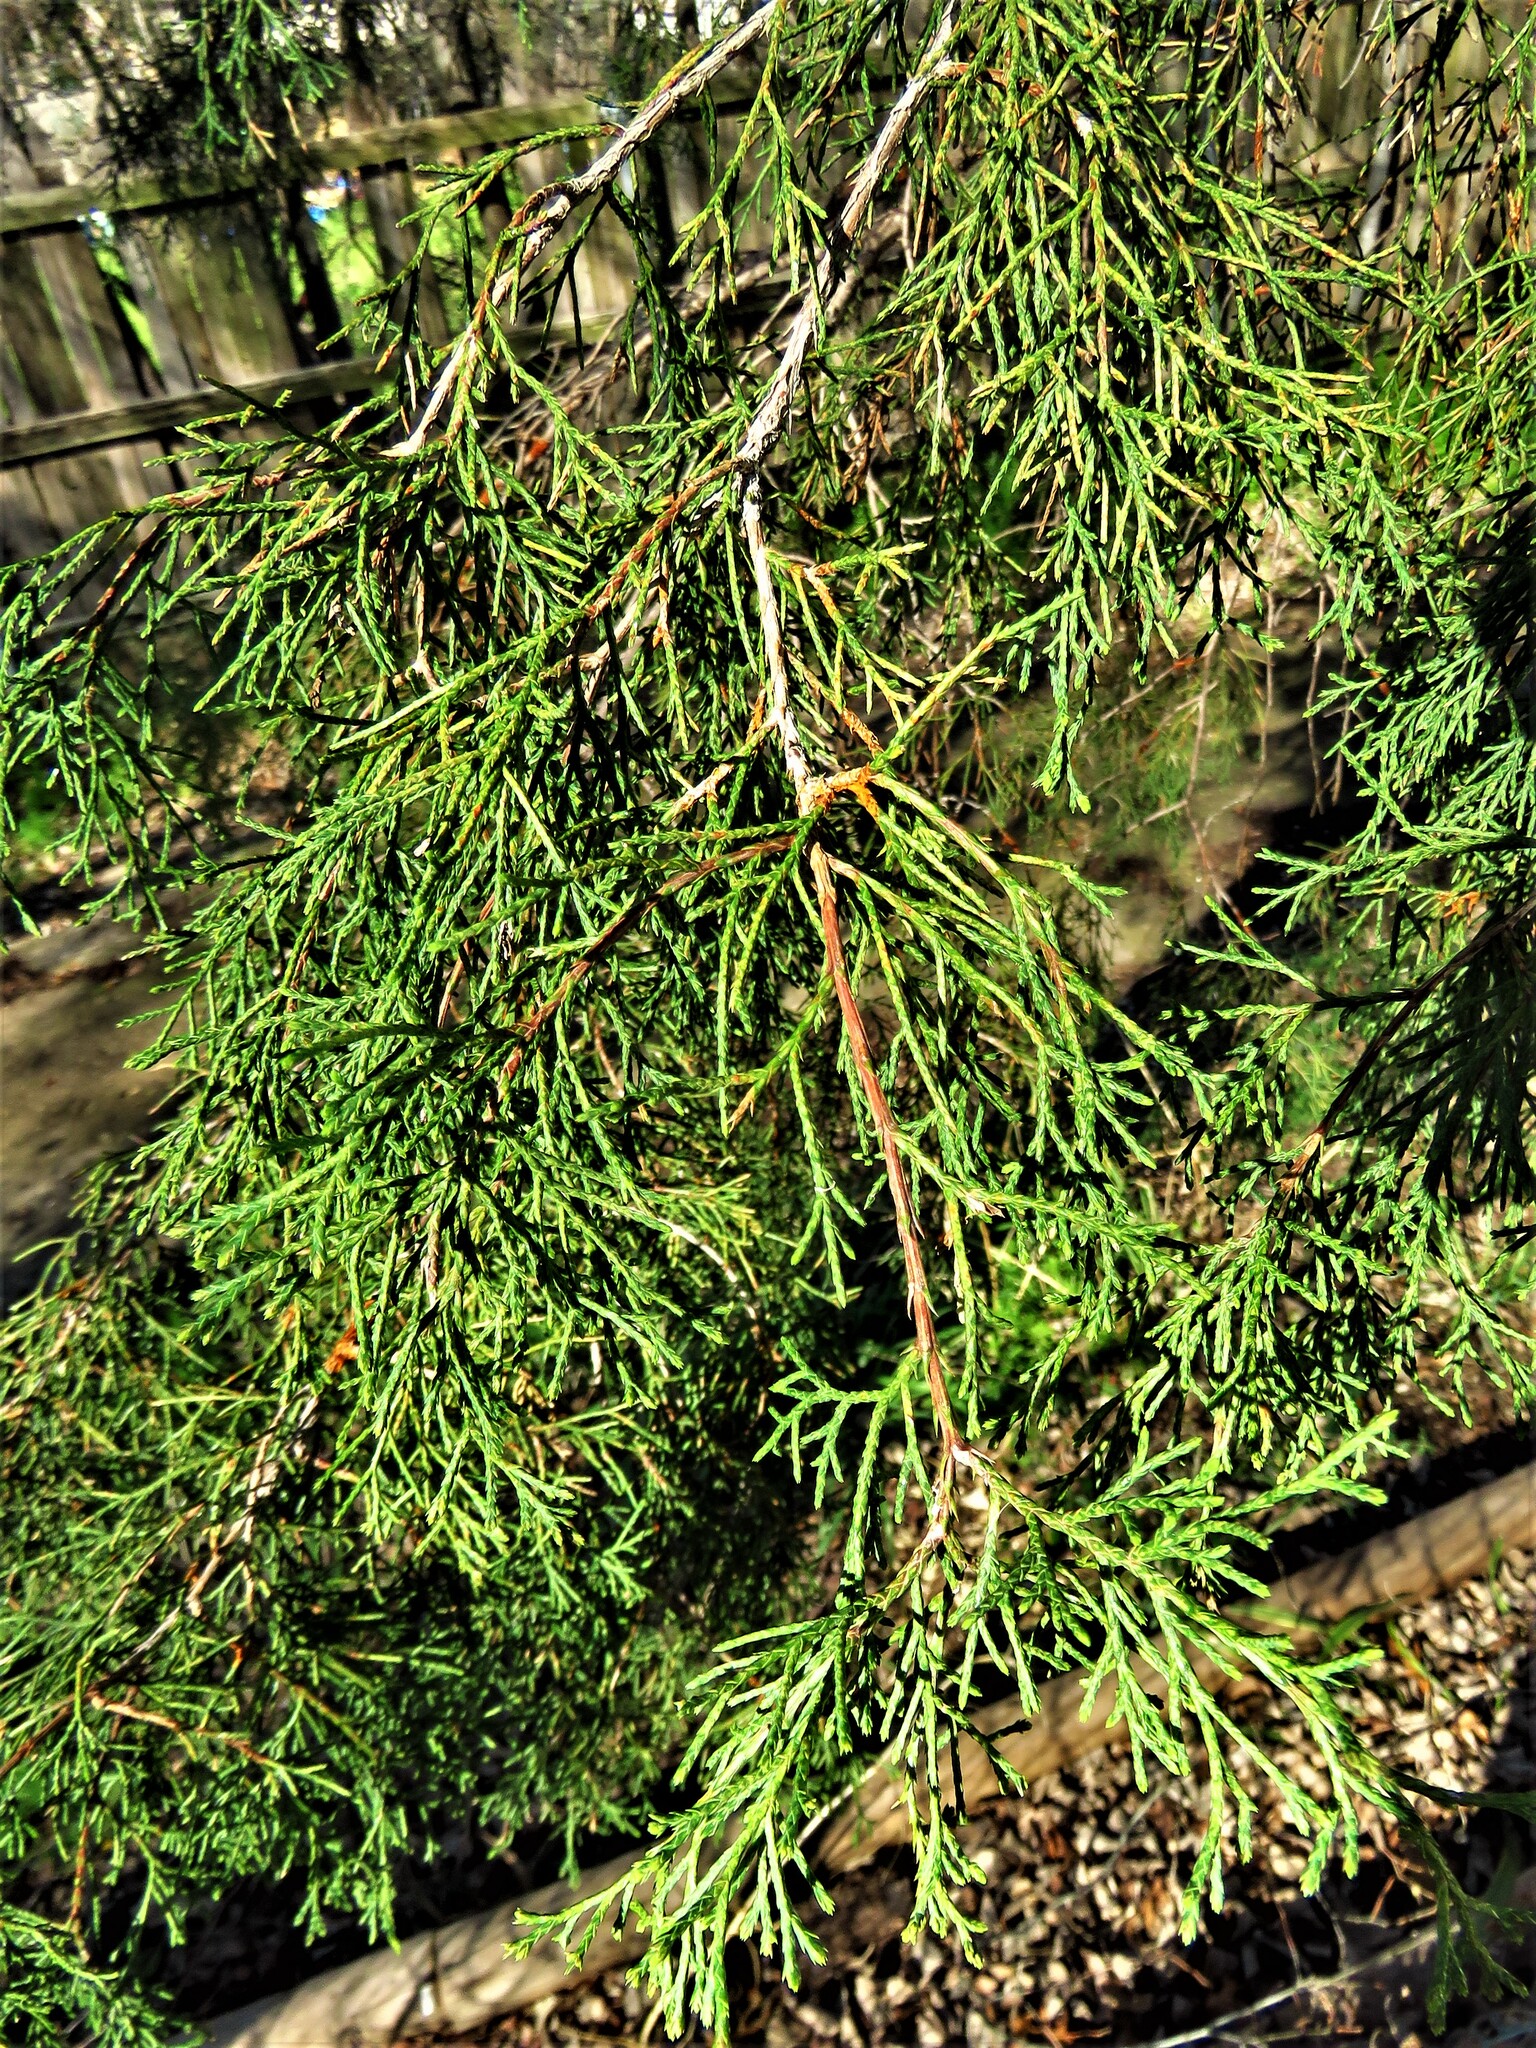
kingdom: Plantae
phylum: Tracheophyta
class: Pinopsida
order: Pinales
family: Cupressaceae
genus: Juniperus
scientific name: Juniperus virginiana
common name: Red juniper
